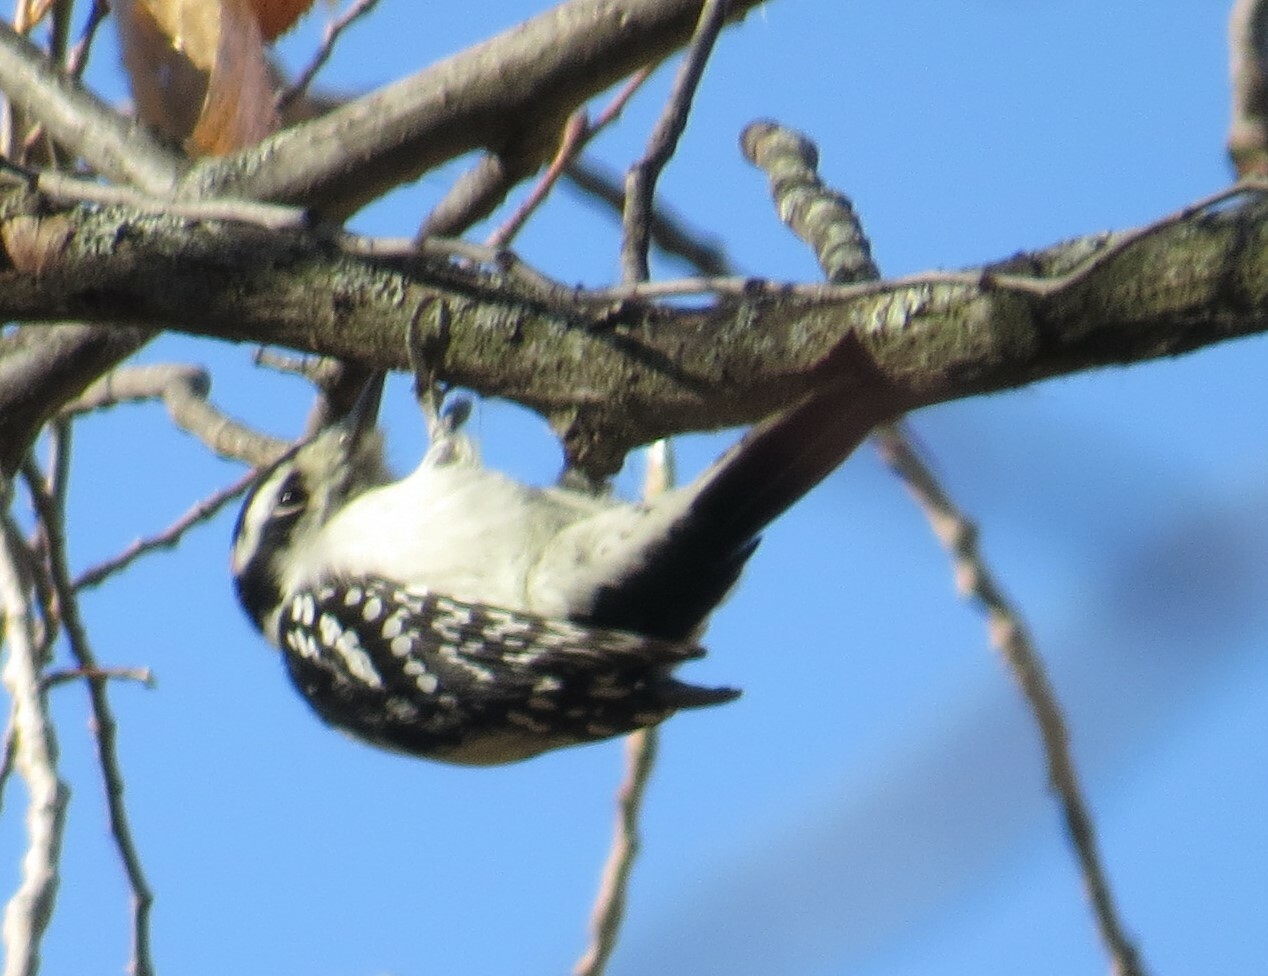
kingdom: Animalia
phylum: Chordata
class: Aves
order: Piciformes
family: Picidae
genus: Dryobates
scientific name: Dryobates pubescens
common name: Downy woodpecker
